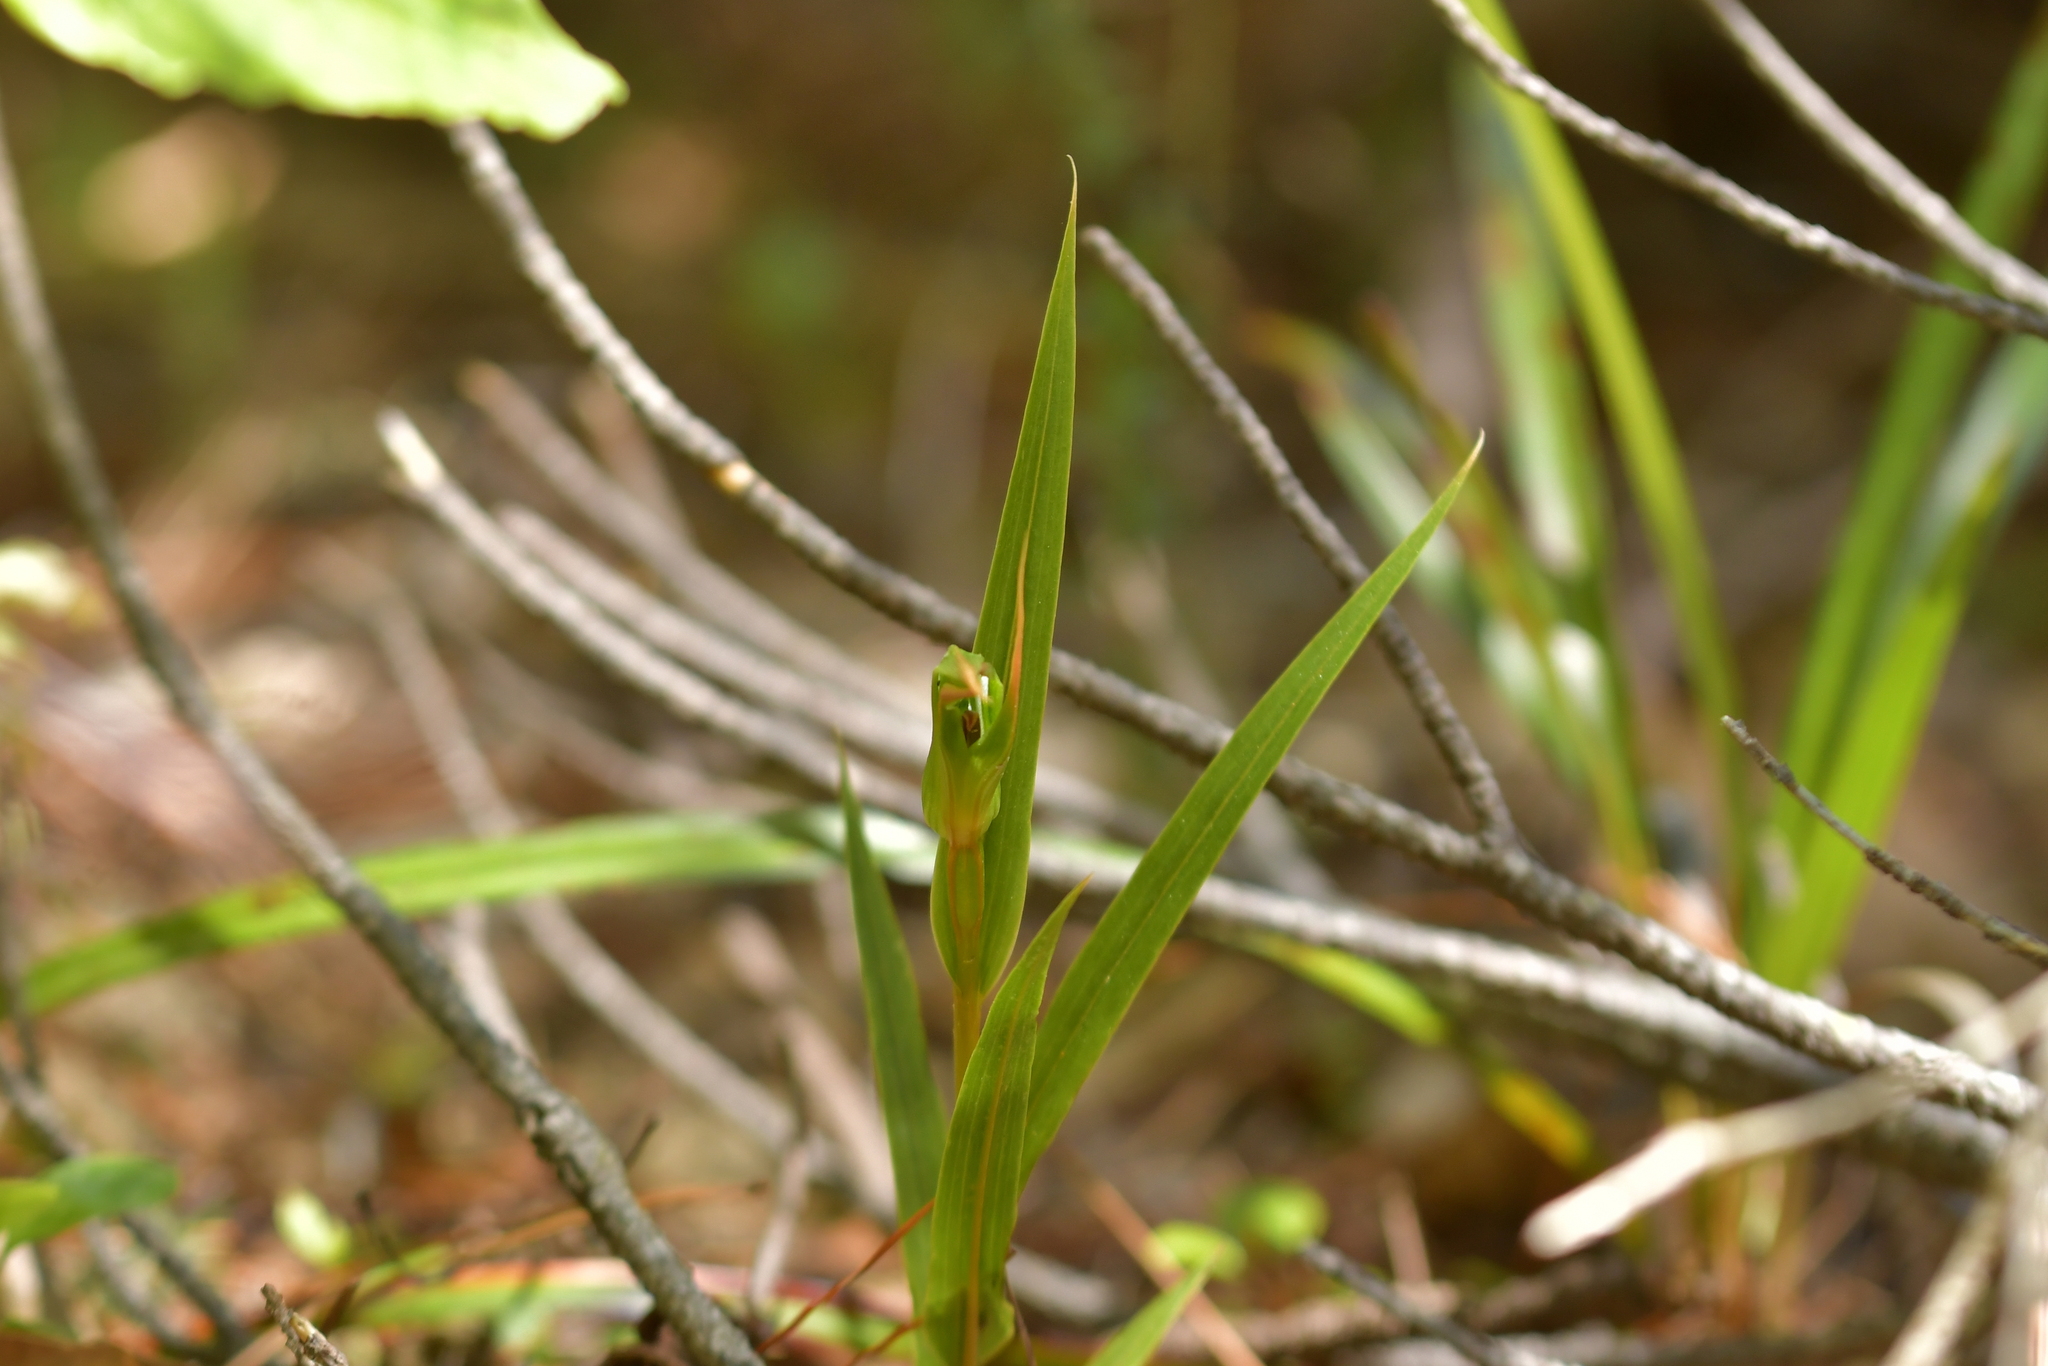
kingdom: Plantae
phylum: Tracheophyta
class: Liliopsida
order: Asparagales
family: Orchidaceae
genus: Pterostylis
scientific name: Pterostylis cardiostigma
